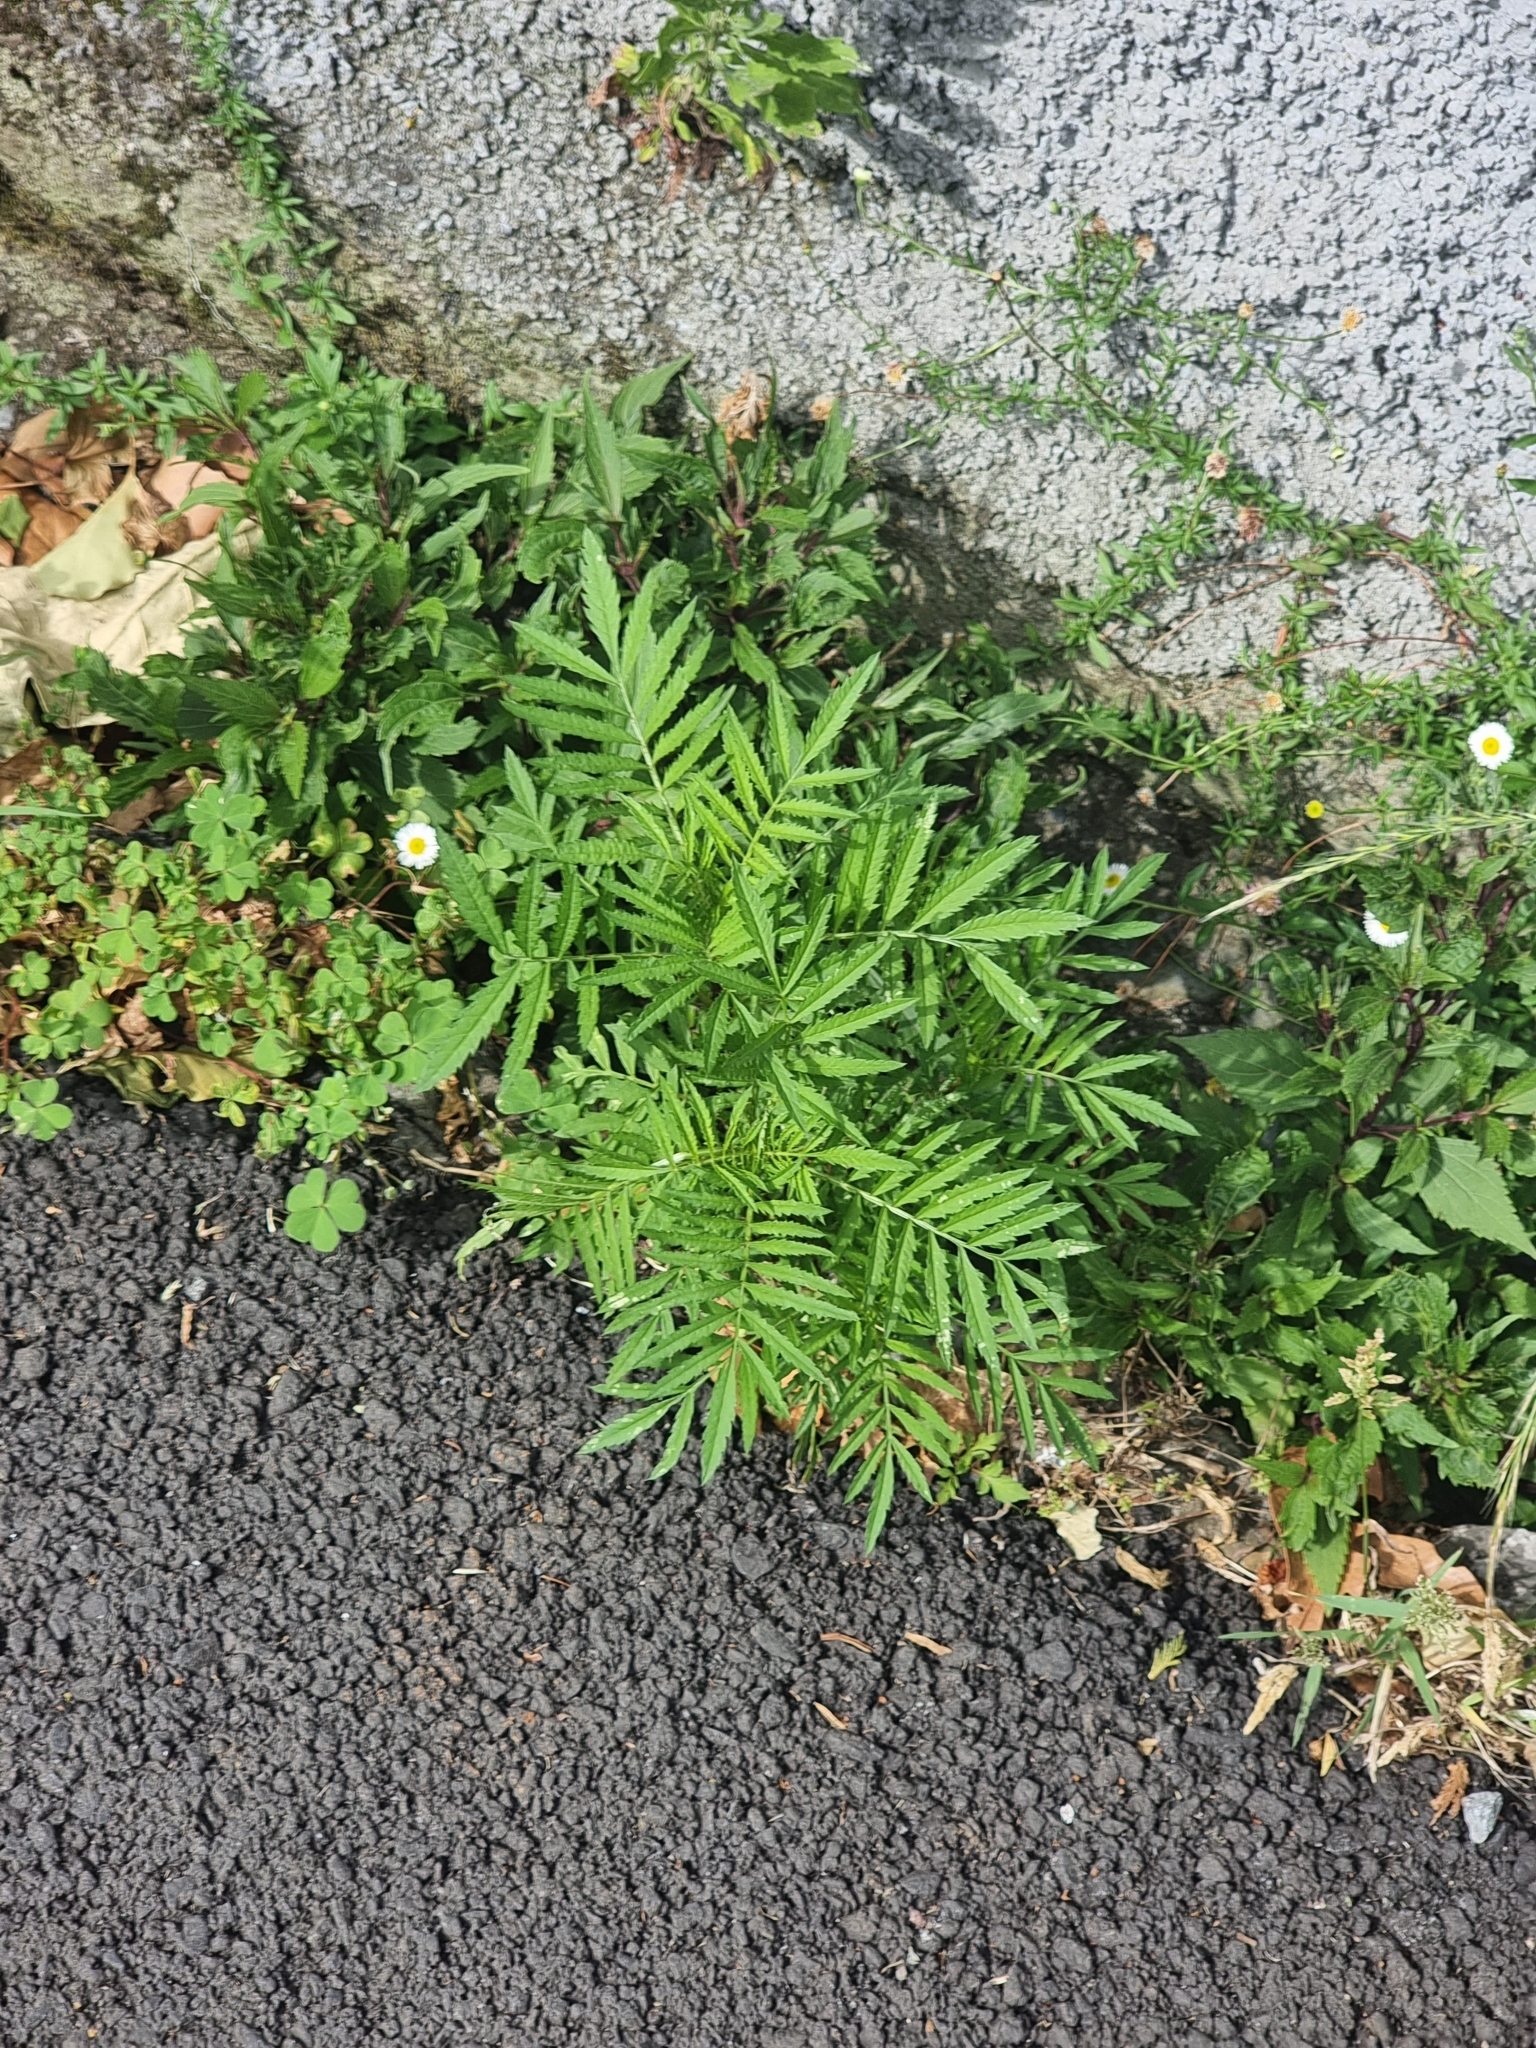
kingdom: Plantae
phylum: Tracheophyta
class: Magnoliopsida
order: Asterales
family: Asteraceae
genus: Tagetes
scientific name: Tagetes erecta
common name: African marigold
